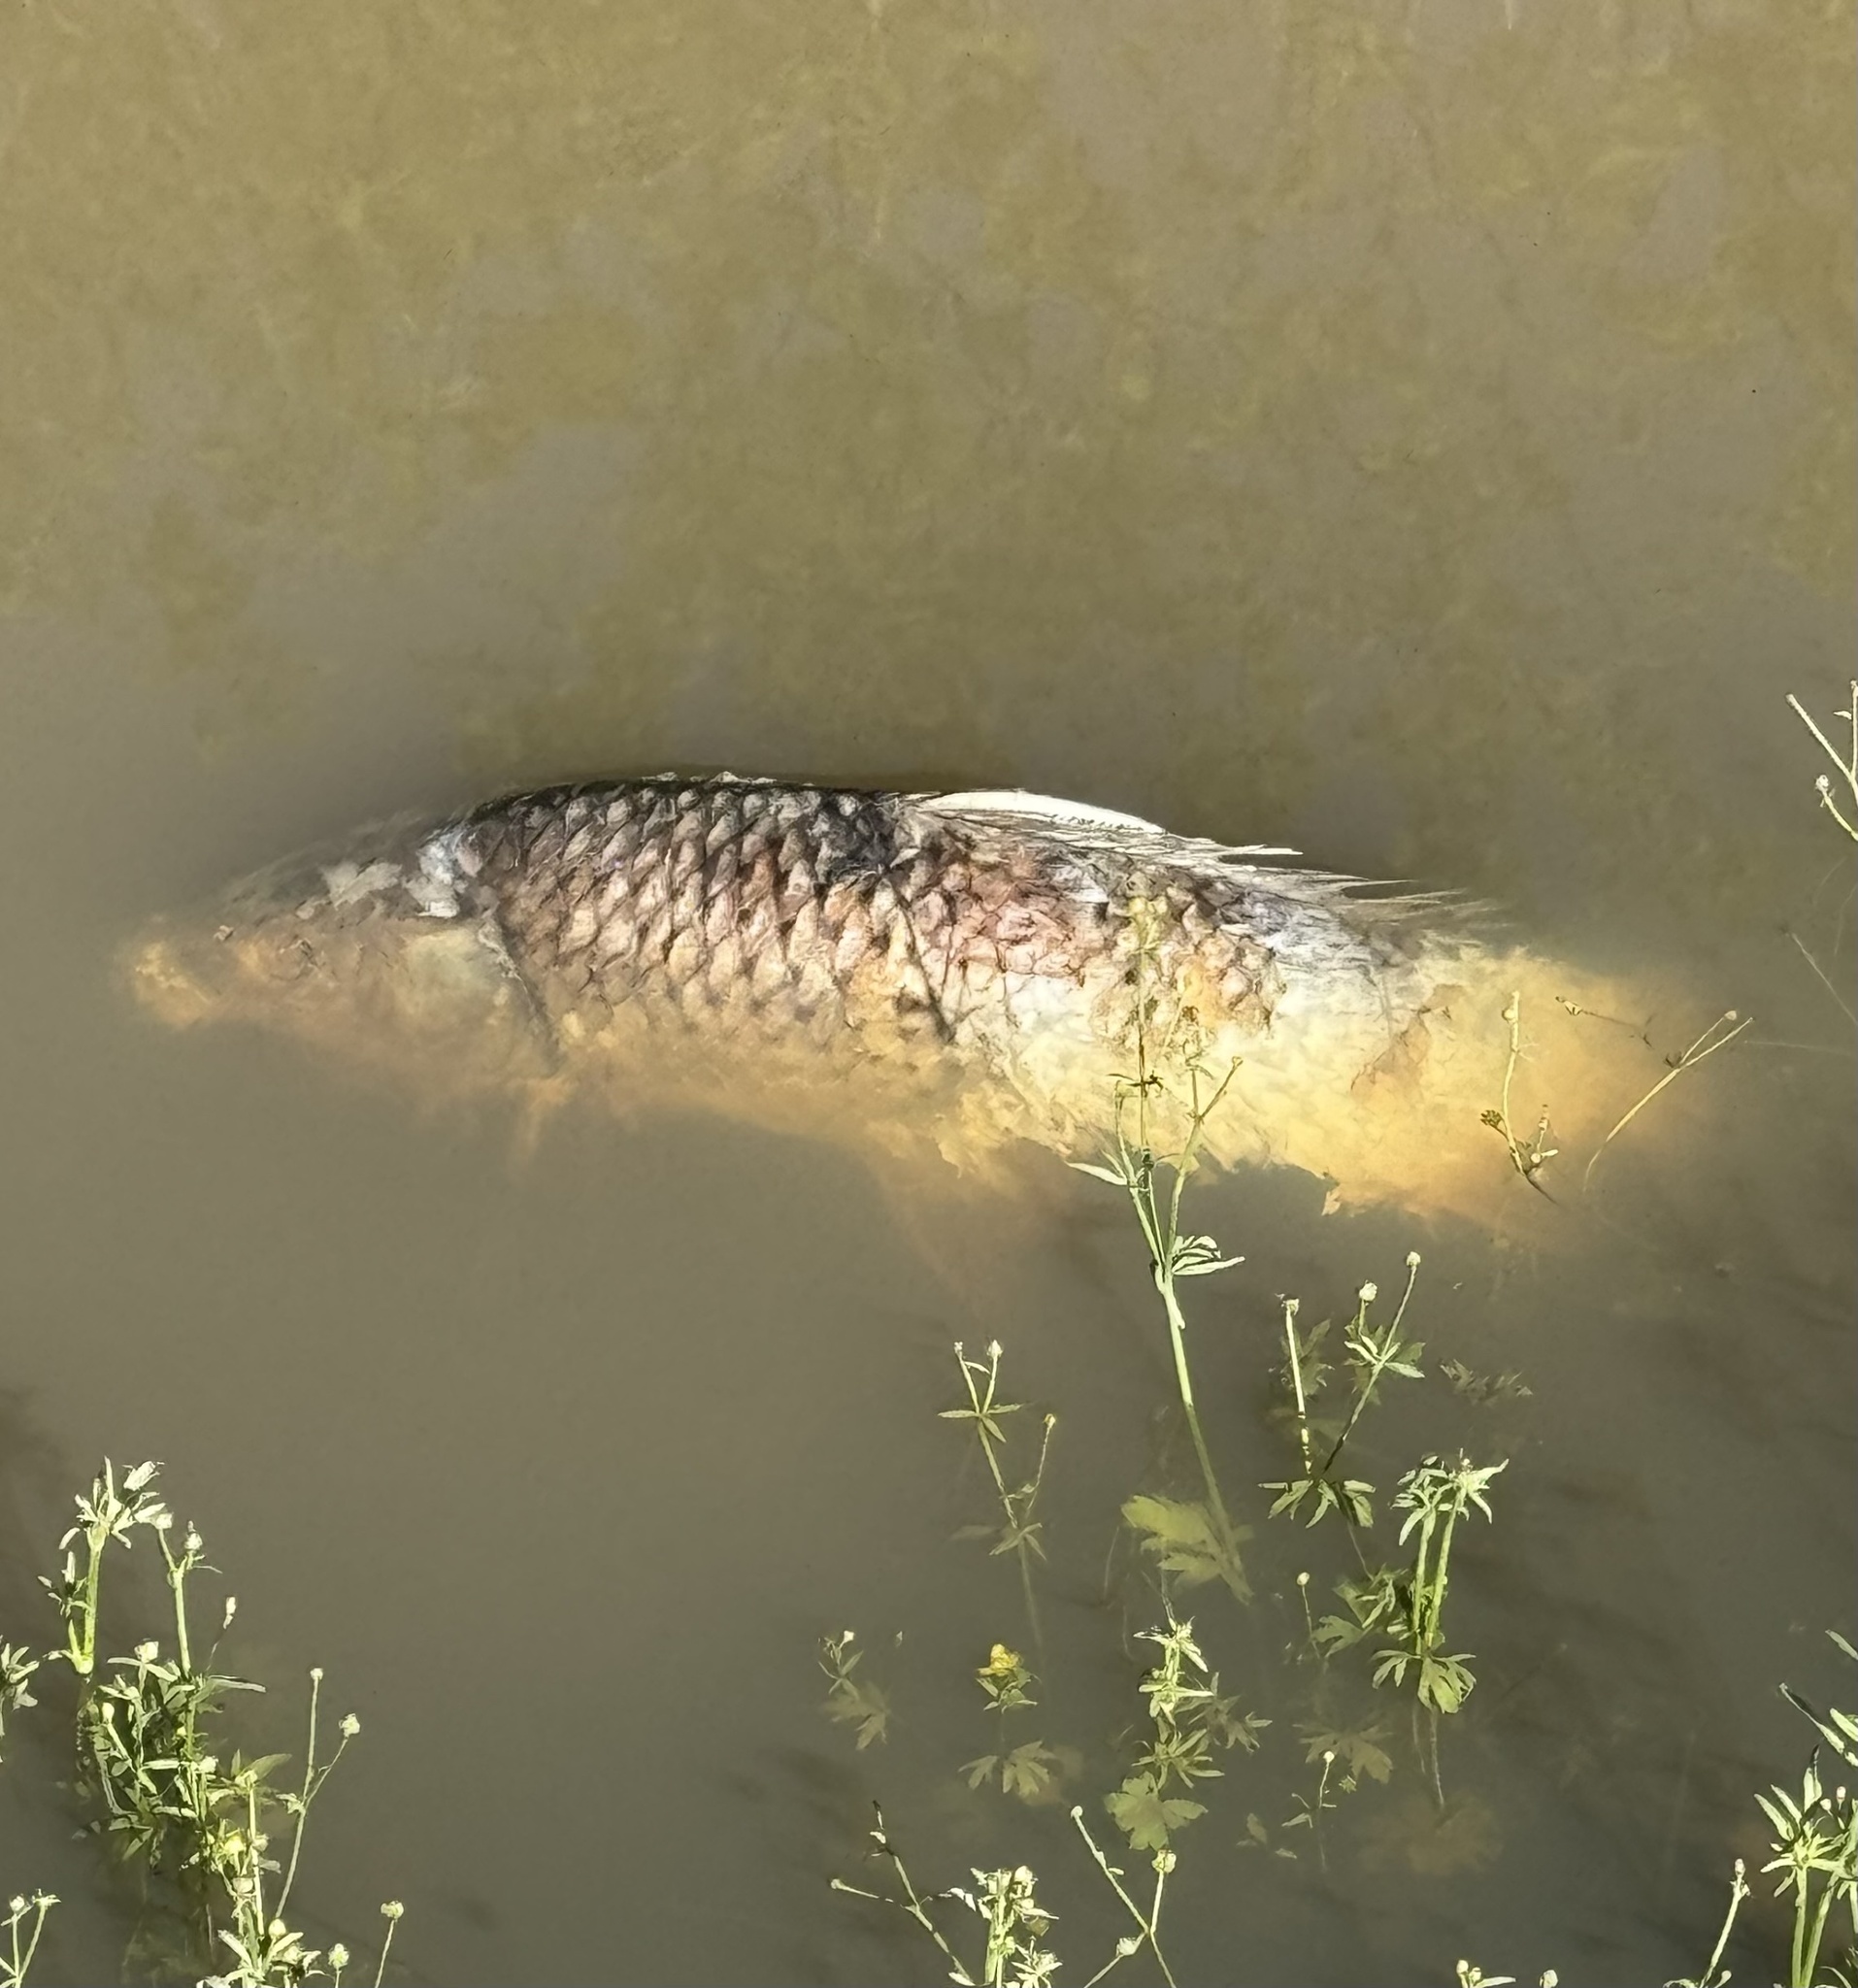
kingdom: Animalia
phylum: Chordata
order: Cypriniformes
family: Cyprinidae
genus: Cyprinus
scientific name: Cyprinus carpio
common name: Common carp
